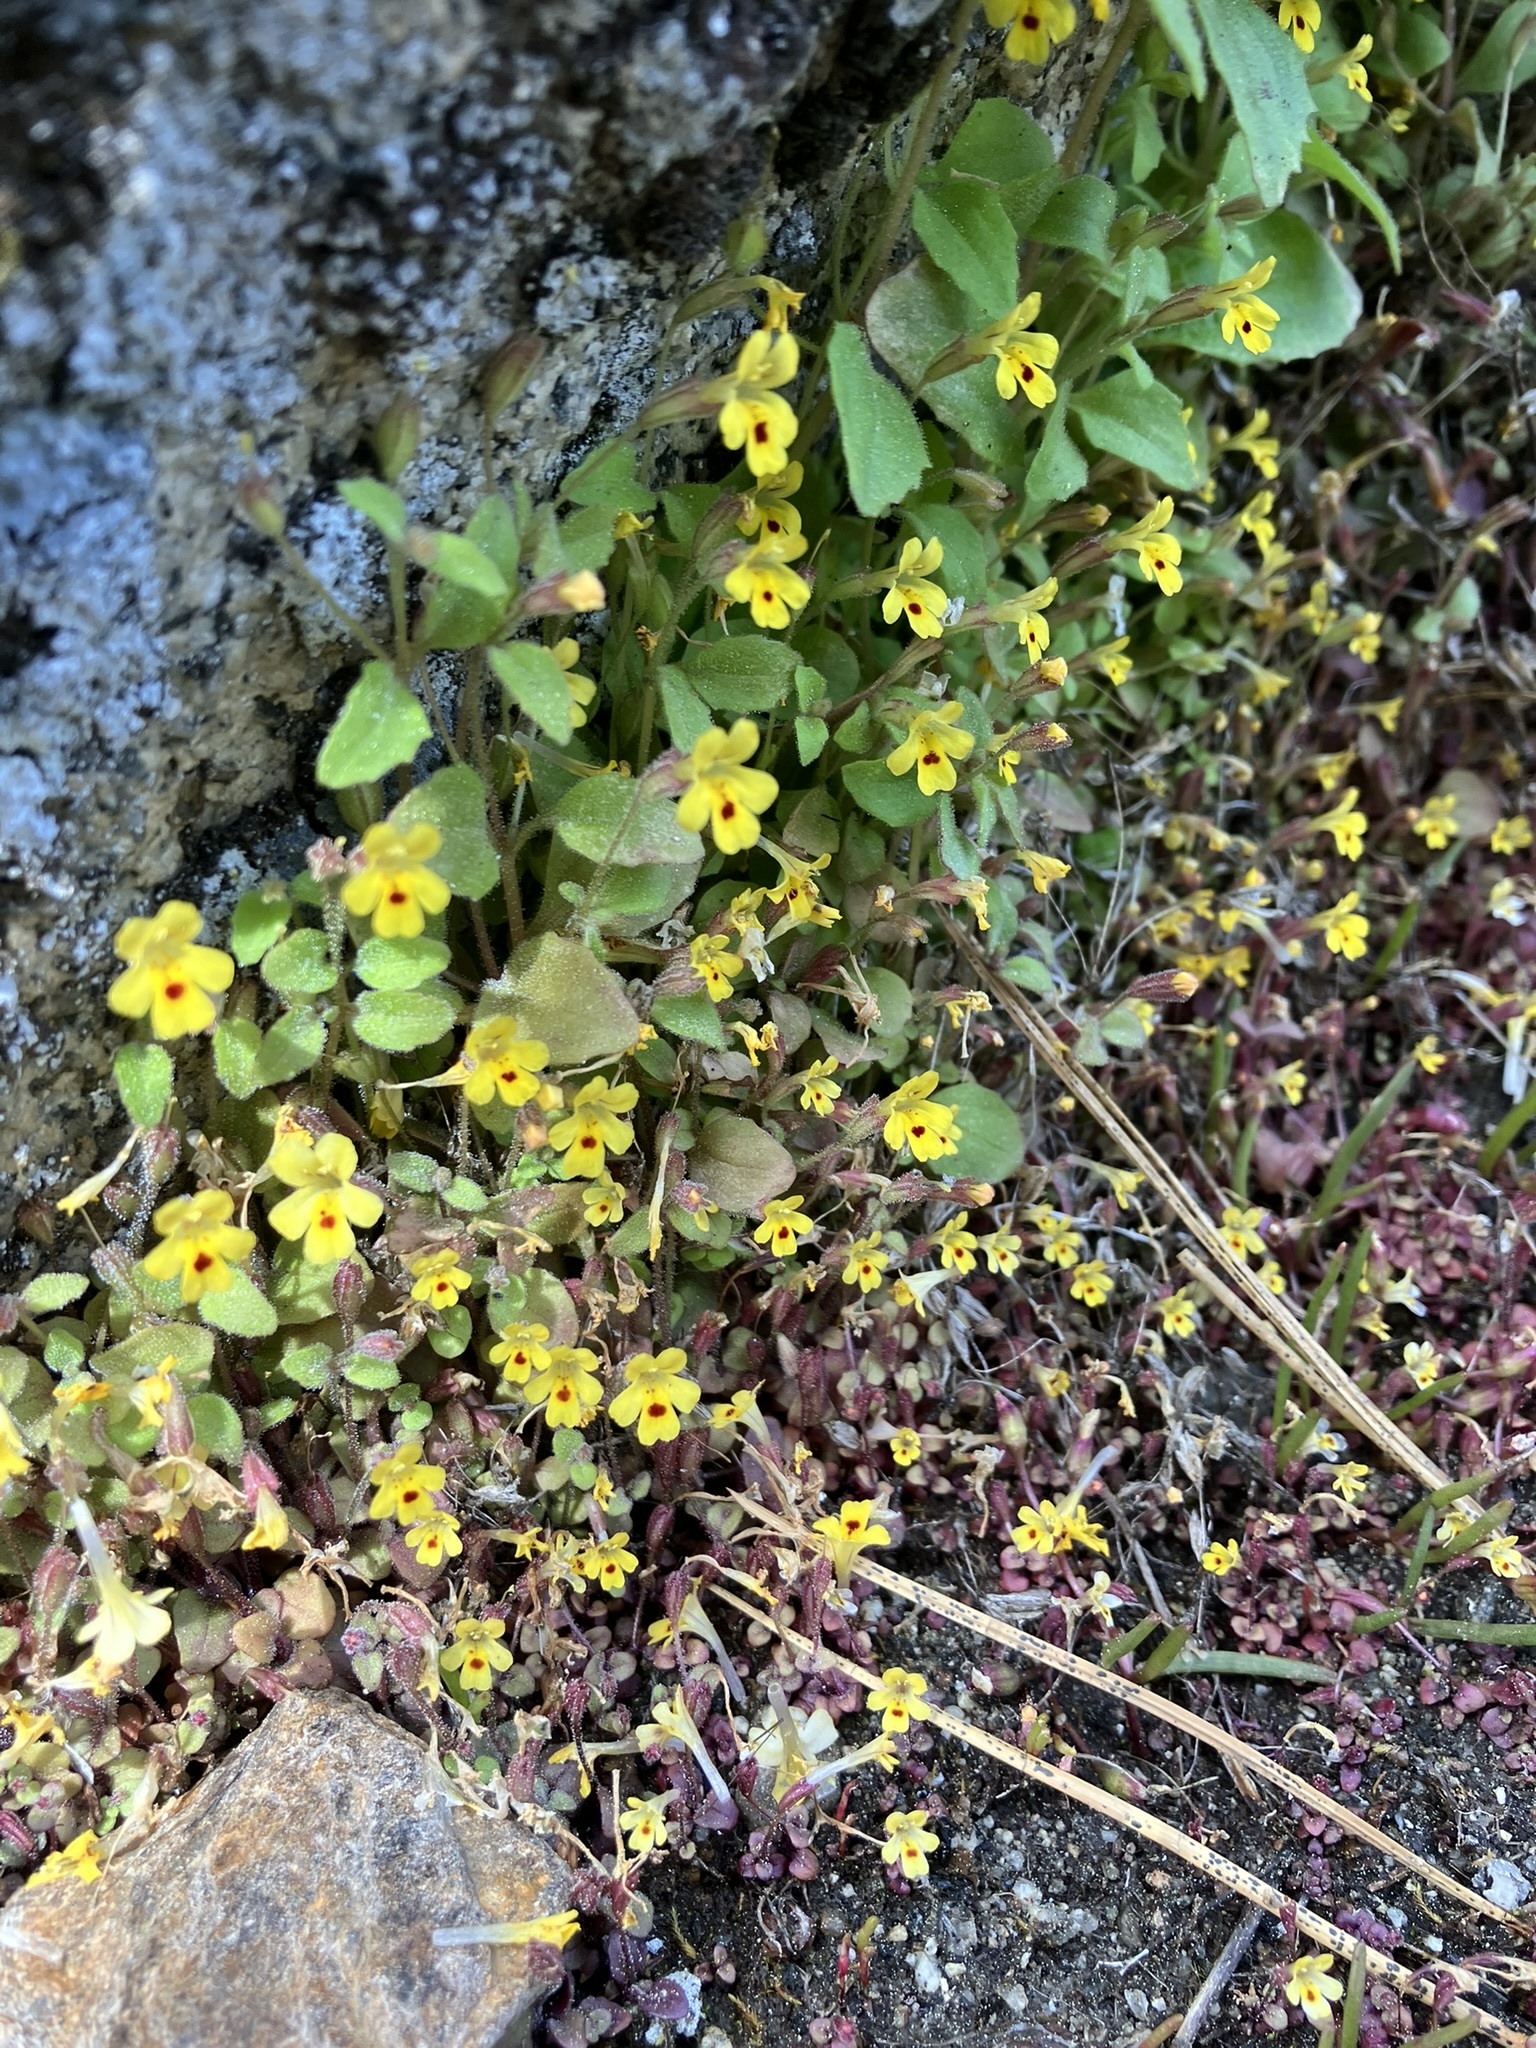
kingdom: Plantae
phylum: Tracheophyta
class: Magnoliopsida
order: Lamiales
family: Phrymaceae
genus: Erythranthe
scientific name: Erythranthe alsinoides
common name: Chickweed monkeyflower
